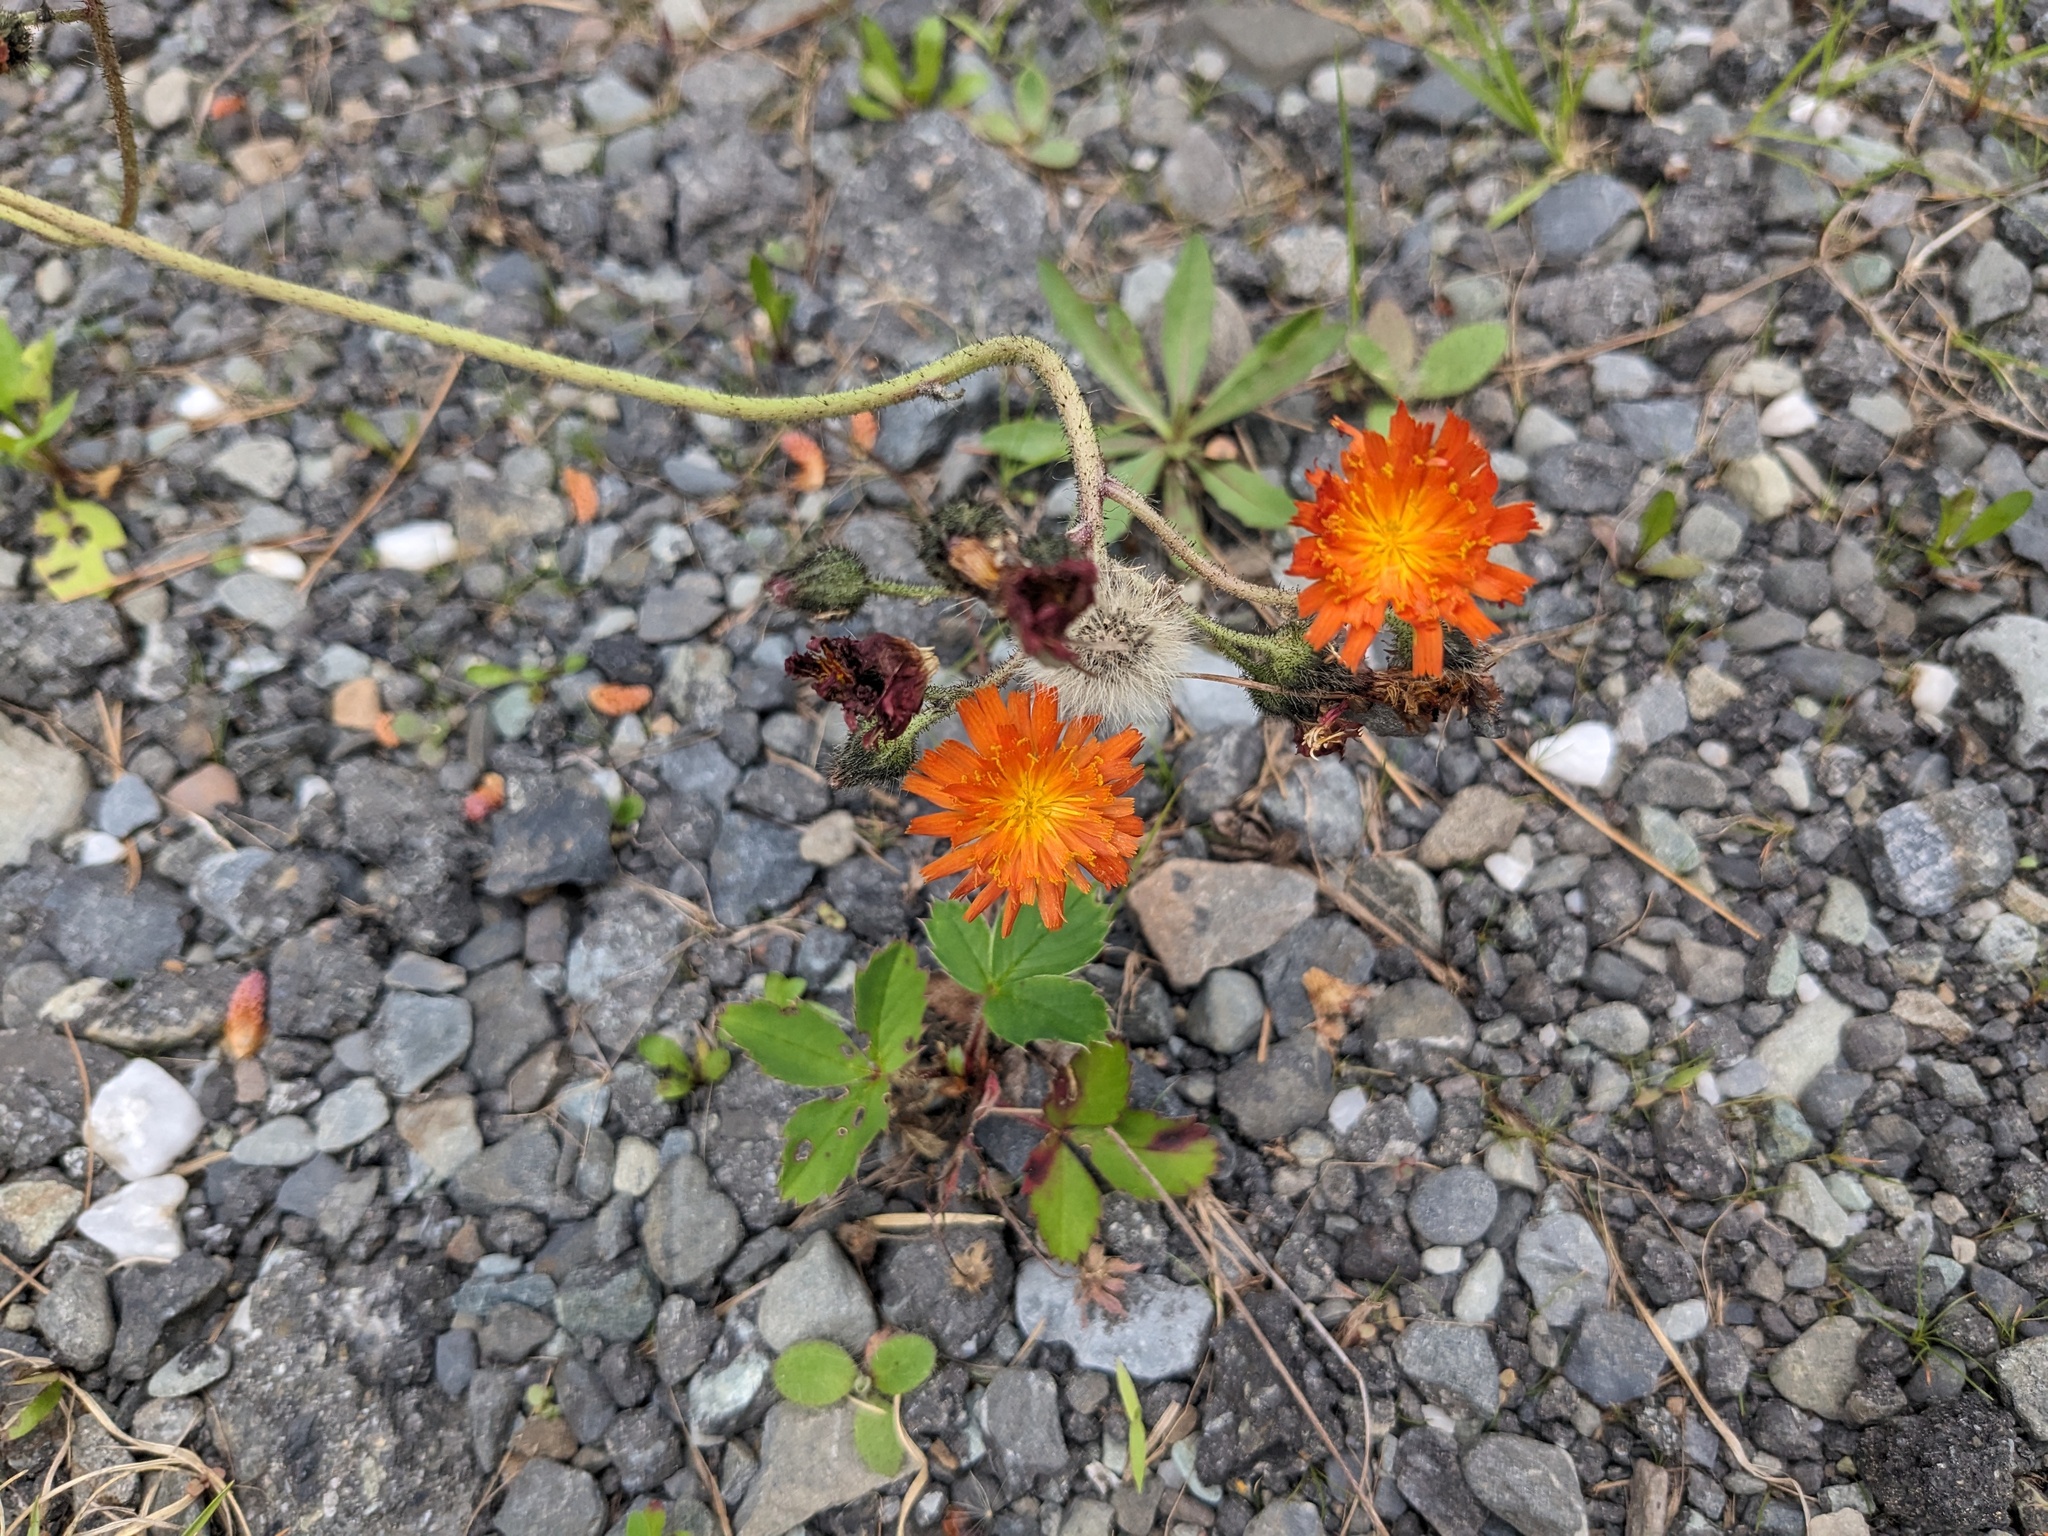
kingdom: Plantae
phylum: Tracheophyta
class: Magnoliopsida
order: Asterales
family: Asteraceae
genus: Pilosella
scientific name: Pilosella aurantiaca
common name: Fox-and-cubs
